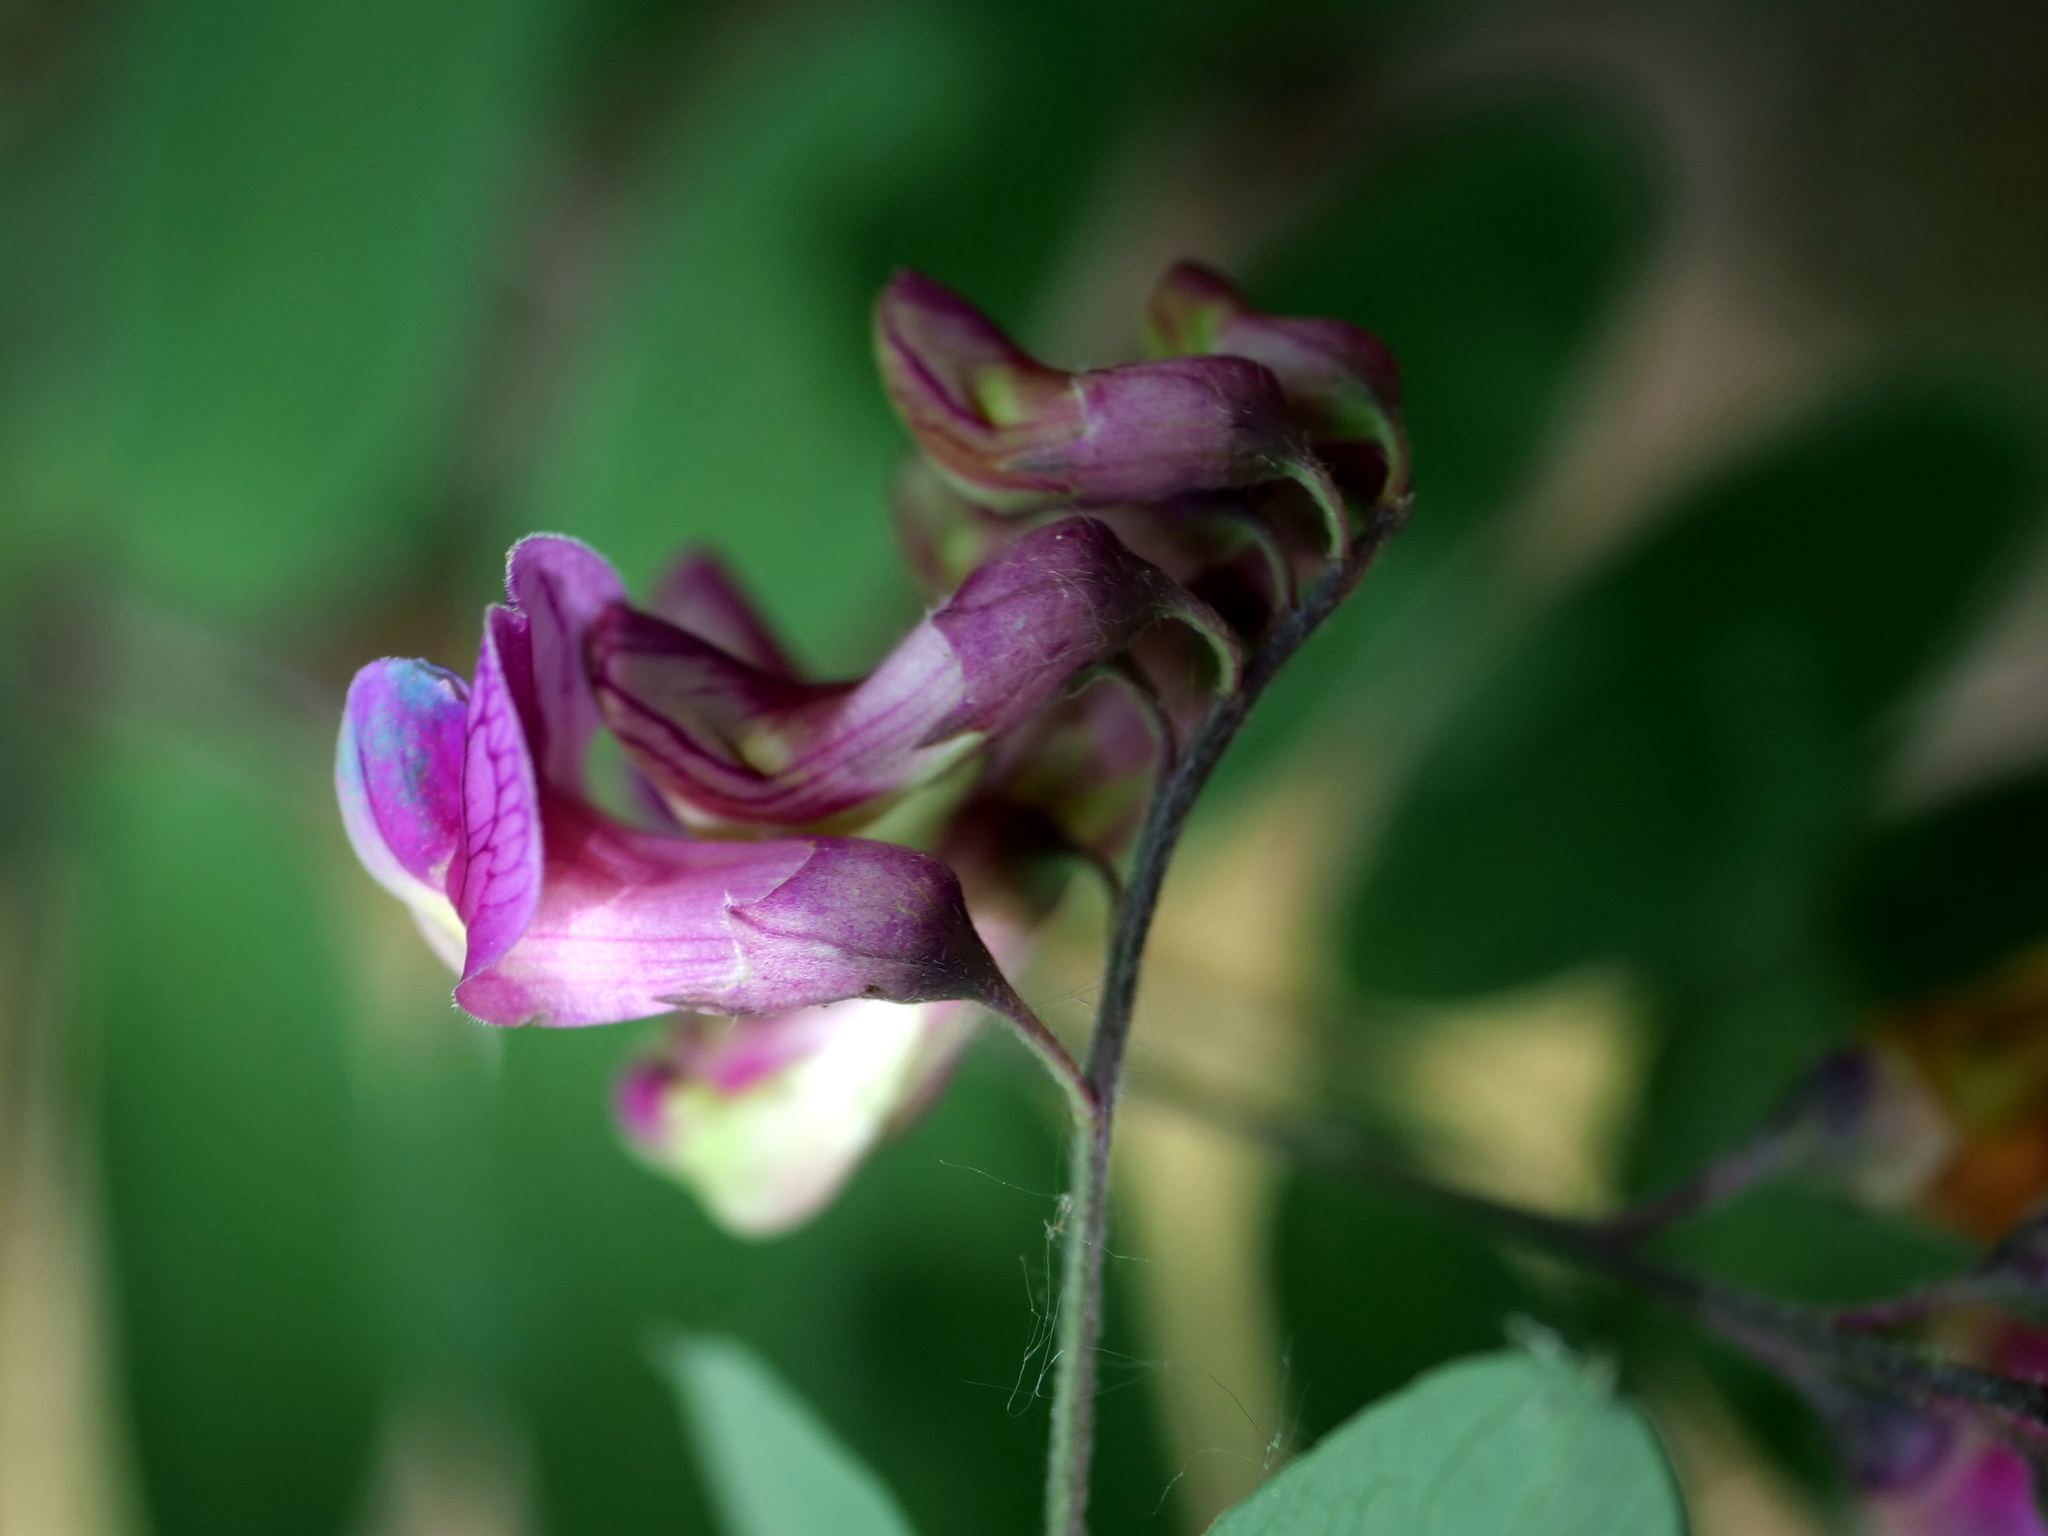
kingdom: Plantae
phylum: Tracheophyta
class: Magnoliopsida
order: Fabales
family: Fabaceae
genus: Lathyrus
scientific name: Lathyrus niger
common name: Black pea
